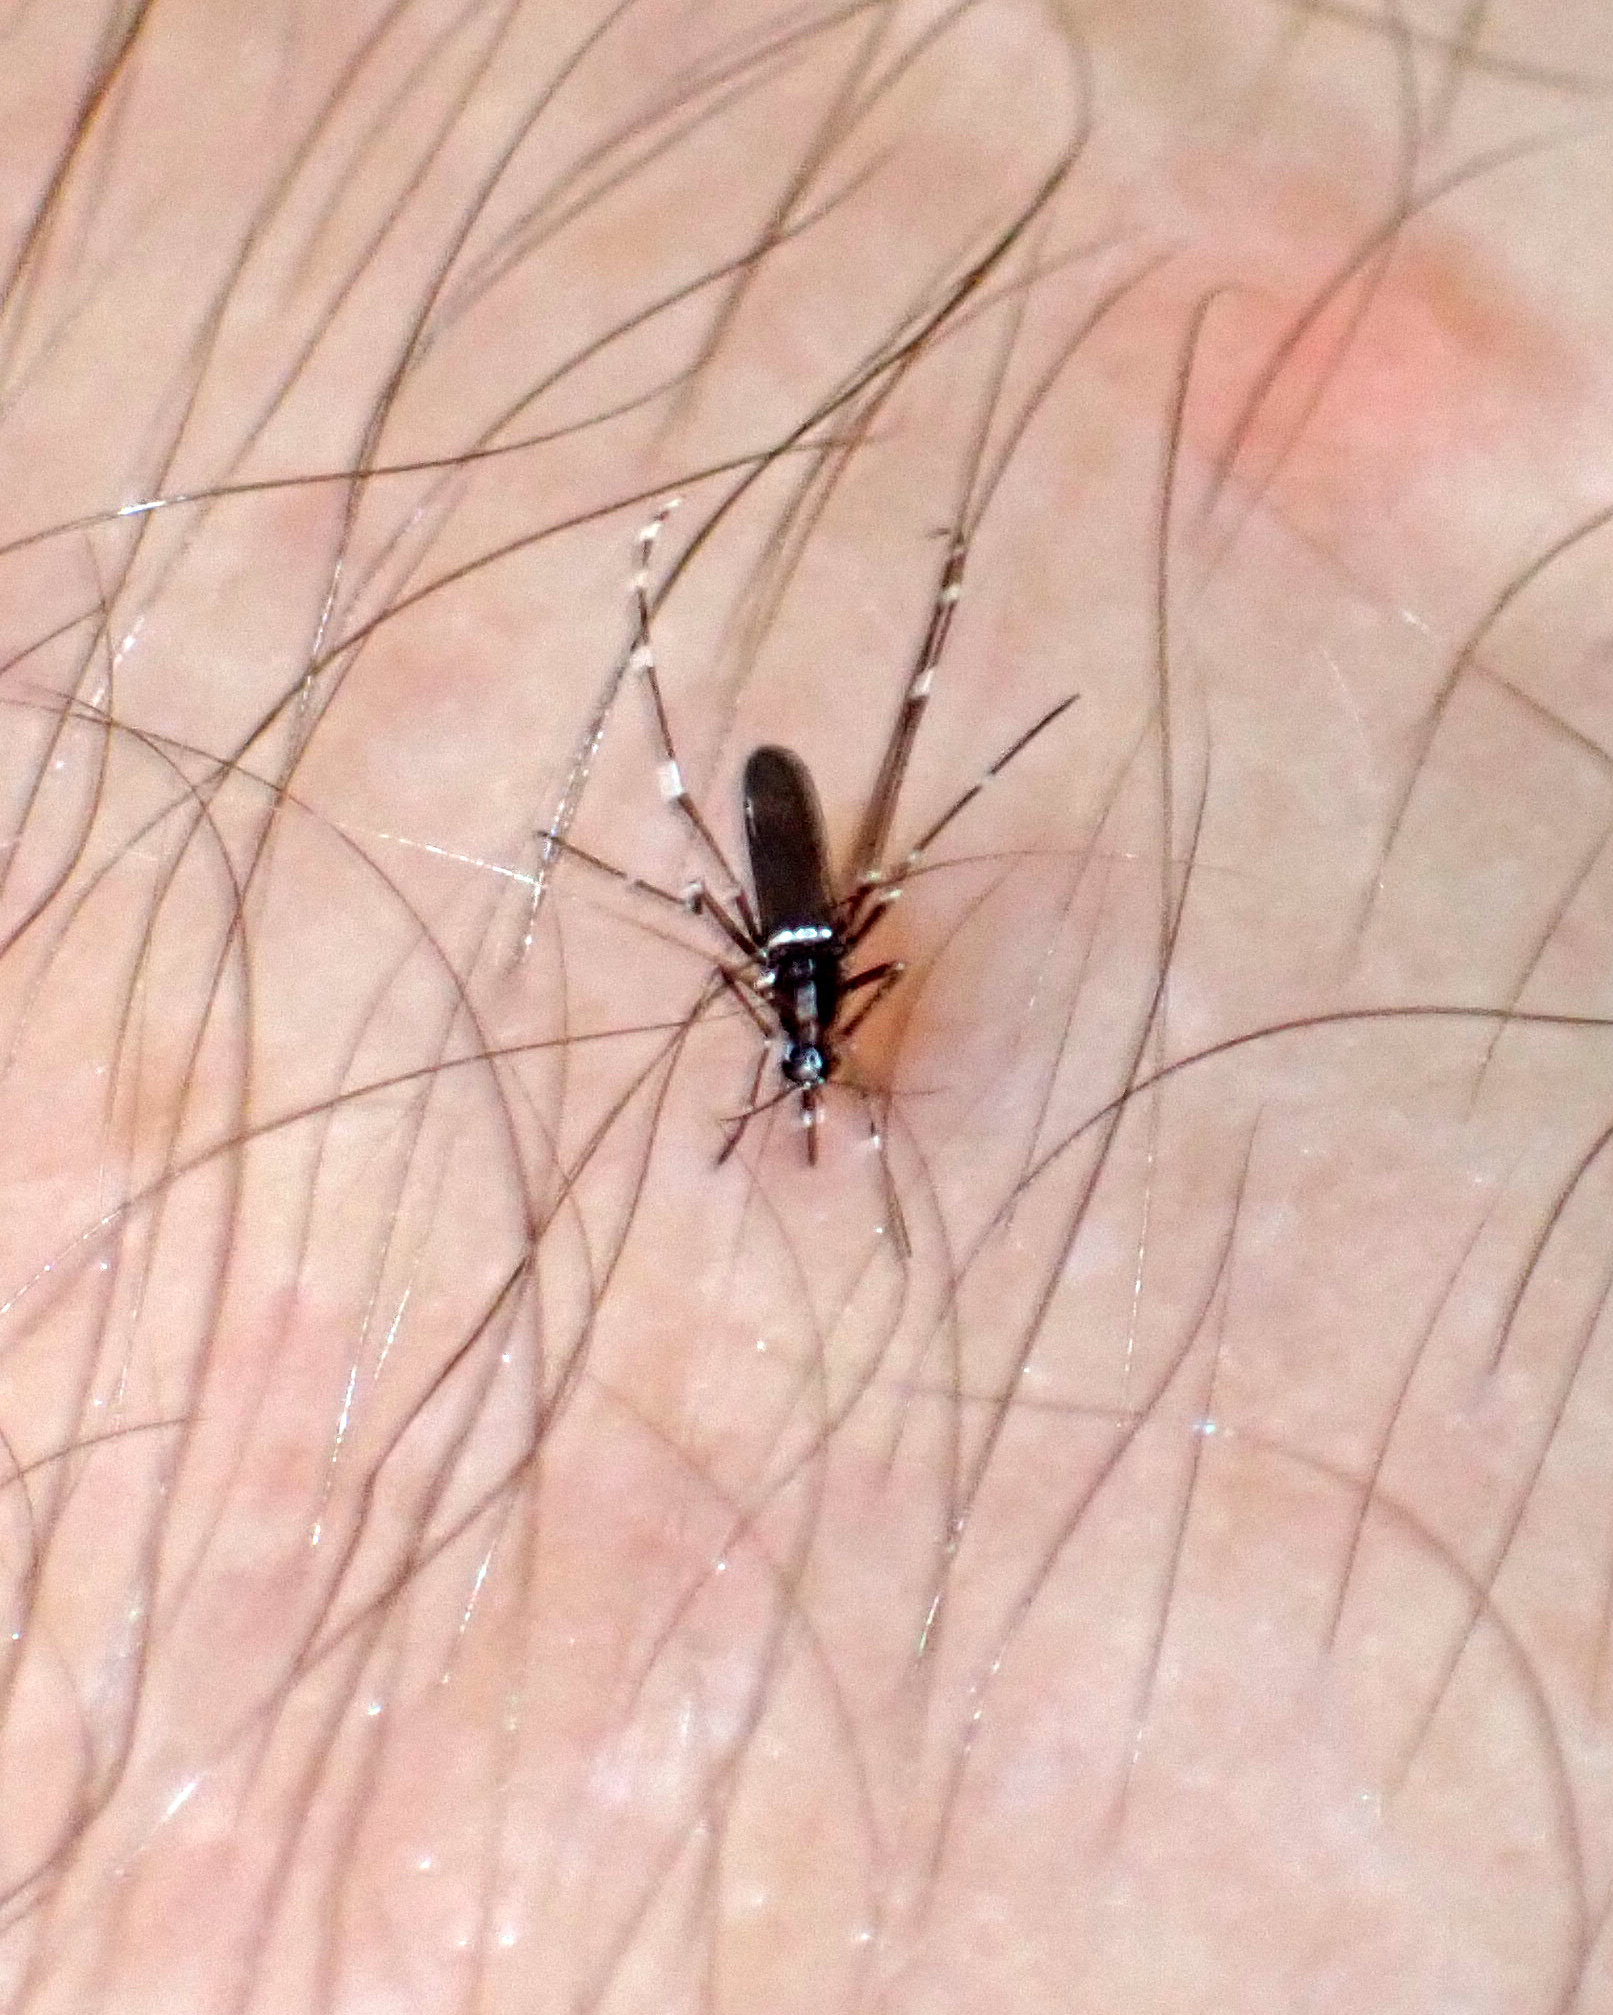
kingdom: Animalia
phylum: Arthropoda
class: Insecta
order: Diptera
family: Culicidae
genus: Aedes
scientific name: Aedes albopictus
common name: Tiger mosquito
